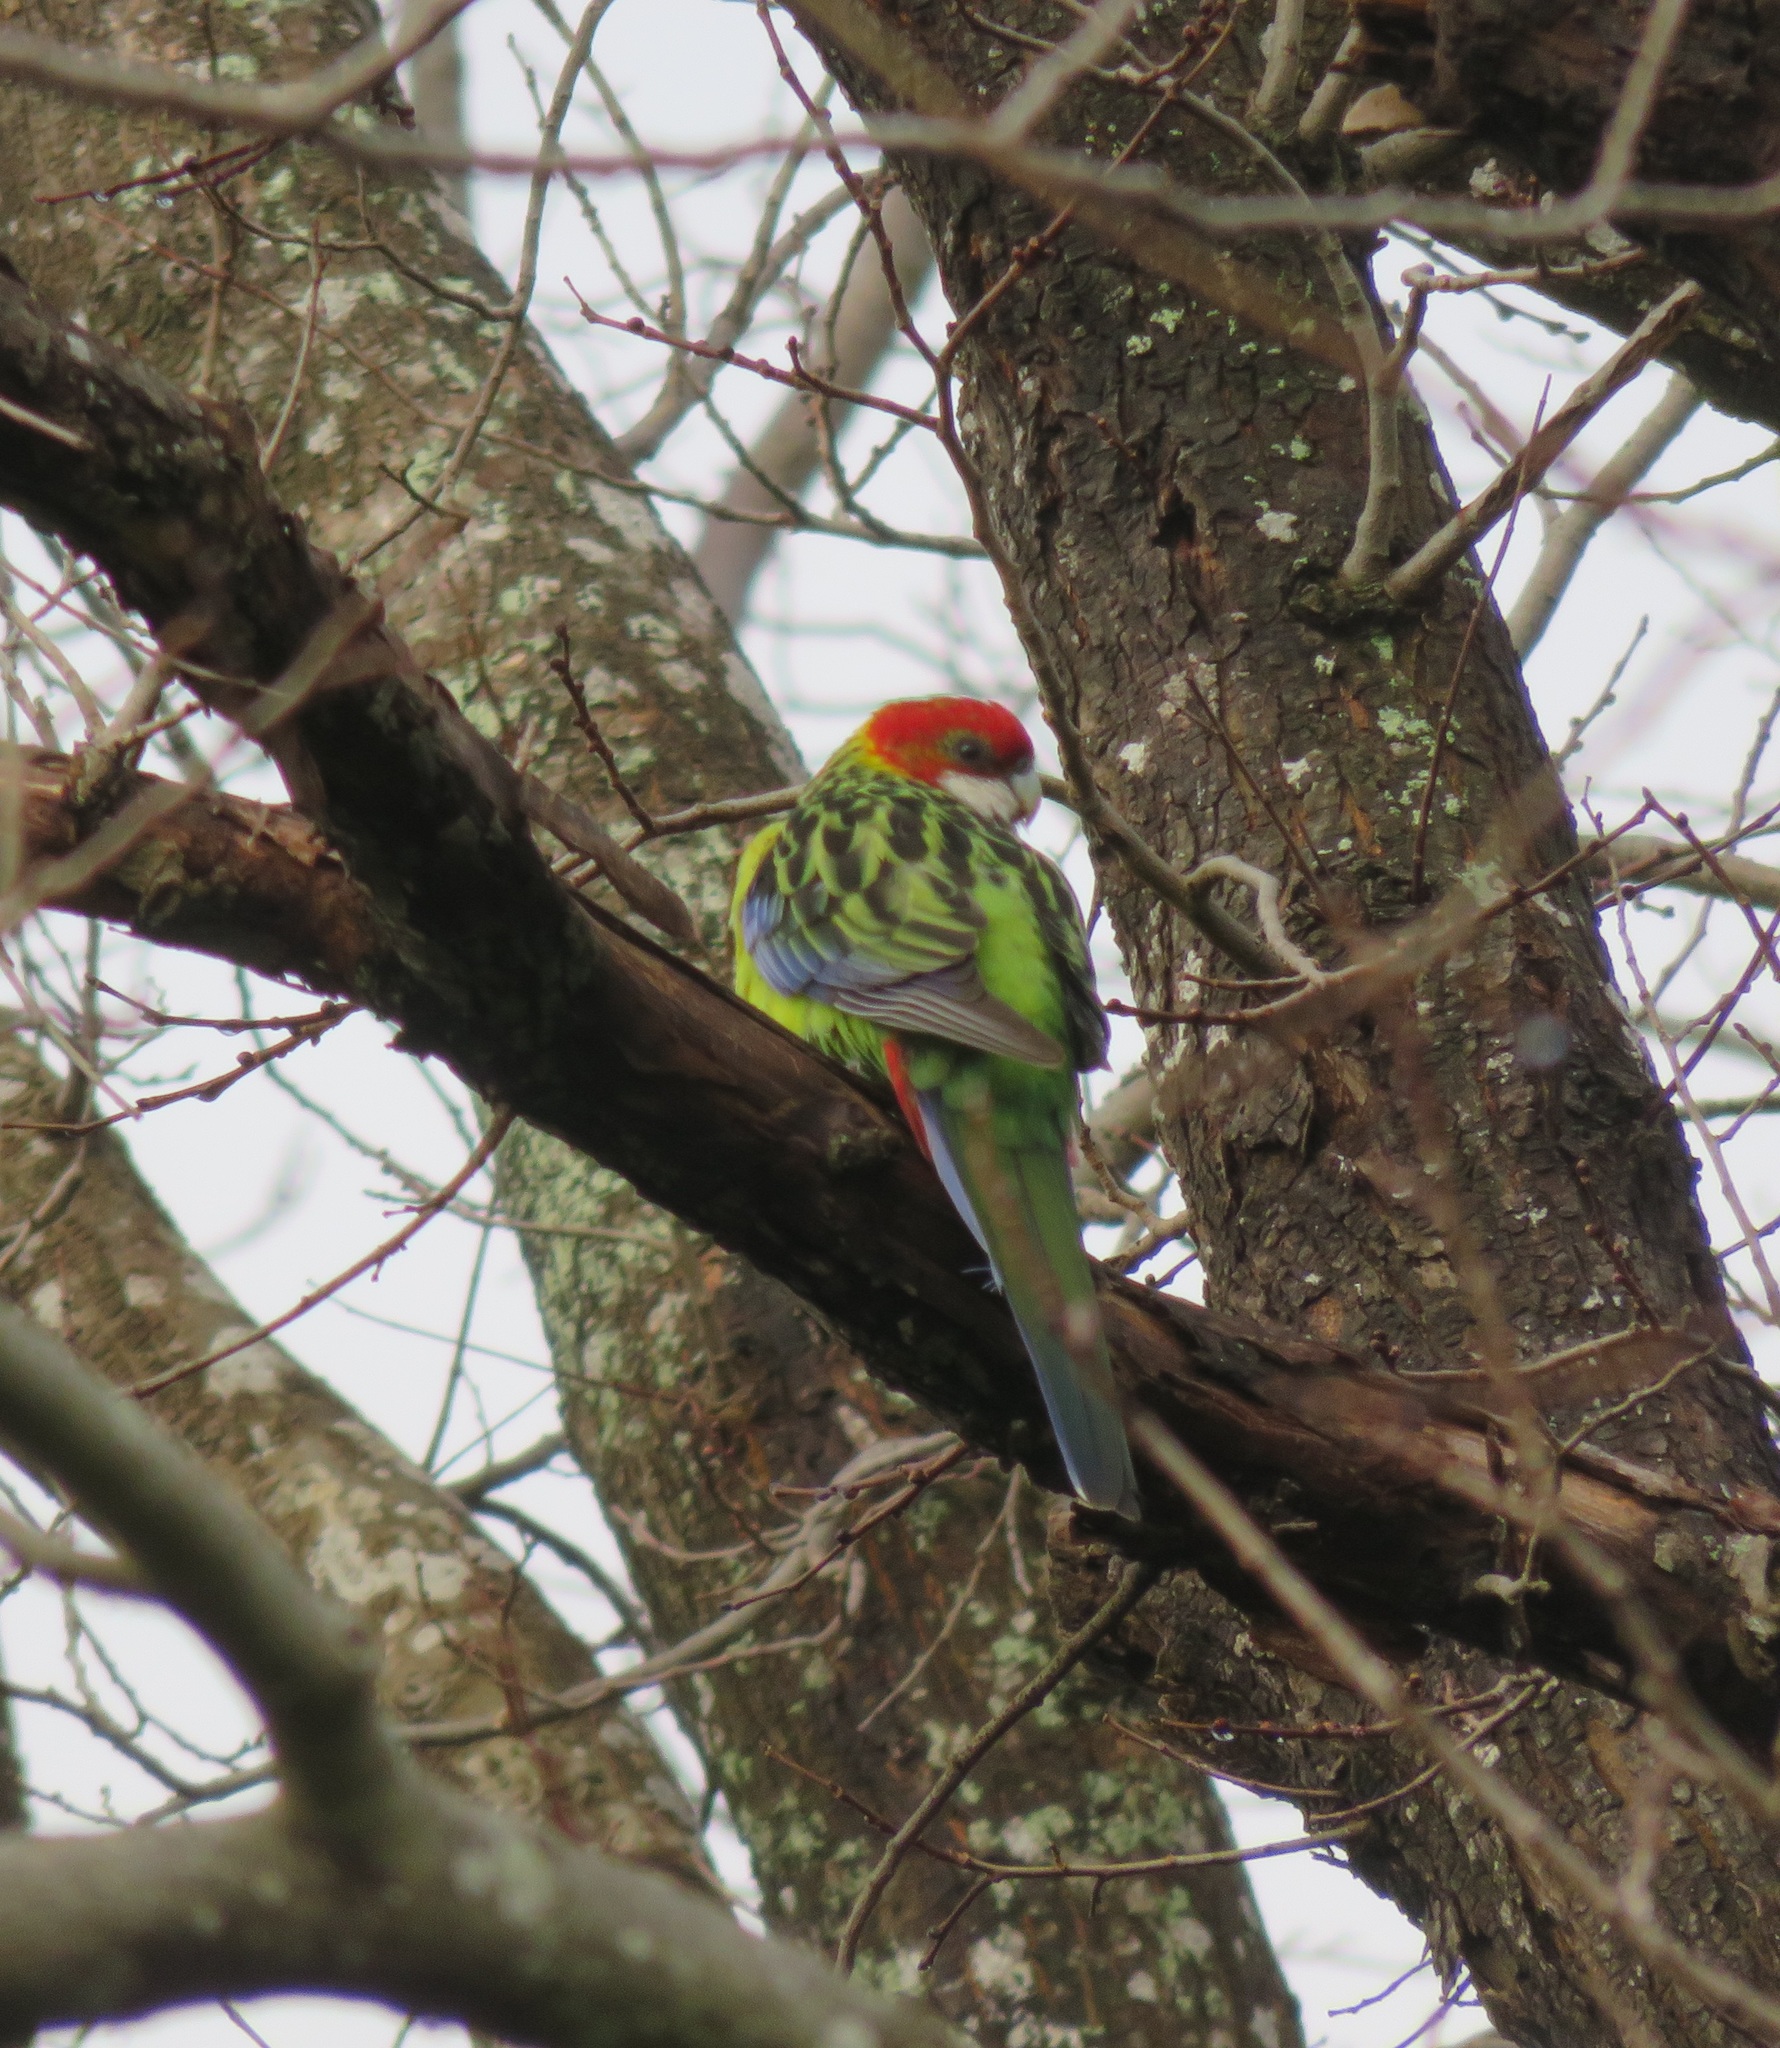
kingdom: Animalia
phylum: Chordata
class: Aves
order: Psittaciformes
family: Psittacidae
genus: Platycercus
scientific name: Platycercus eximius
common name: Eastern rosella
